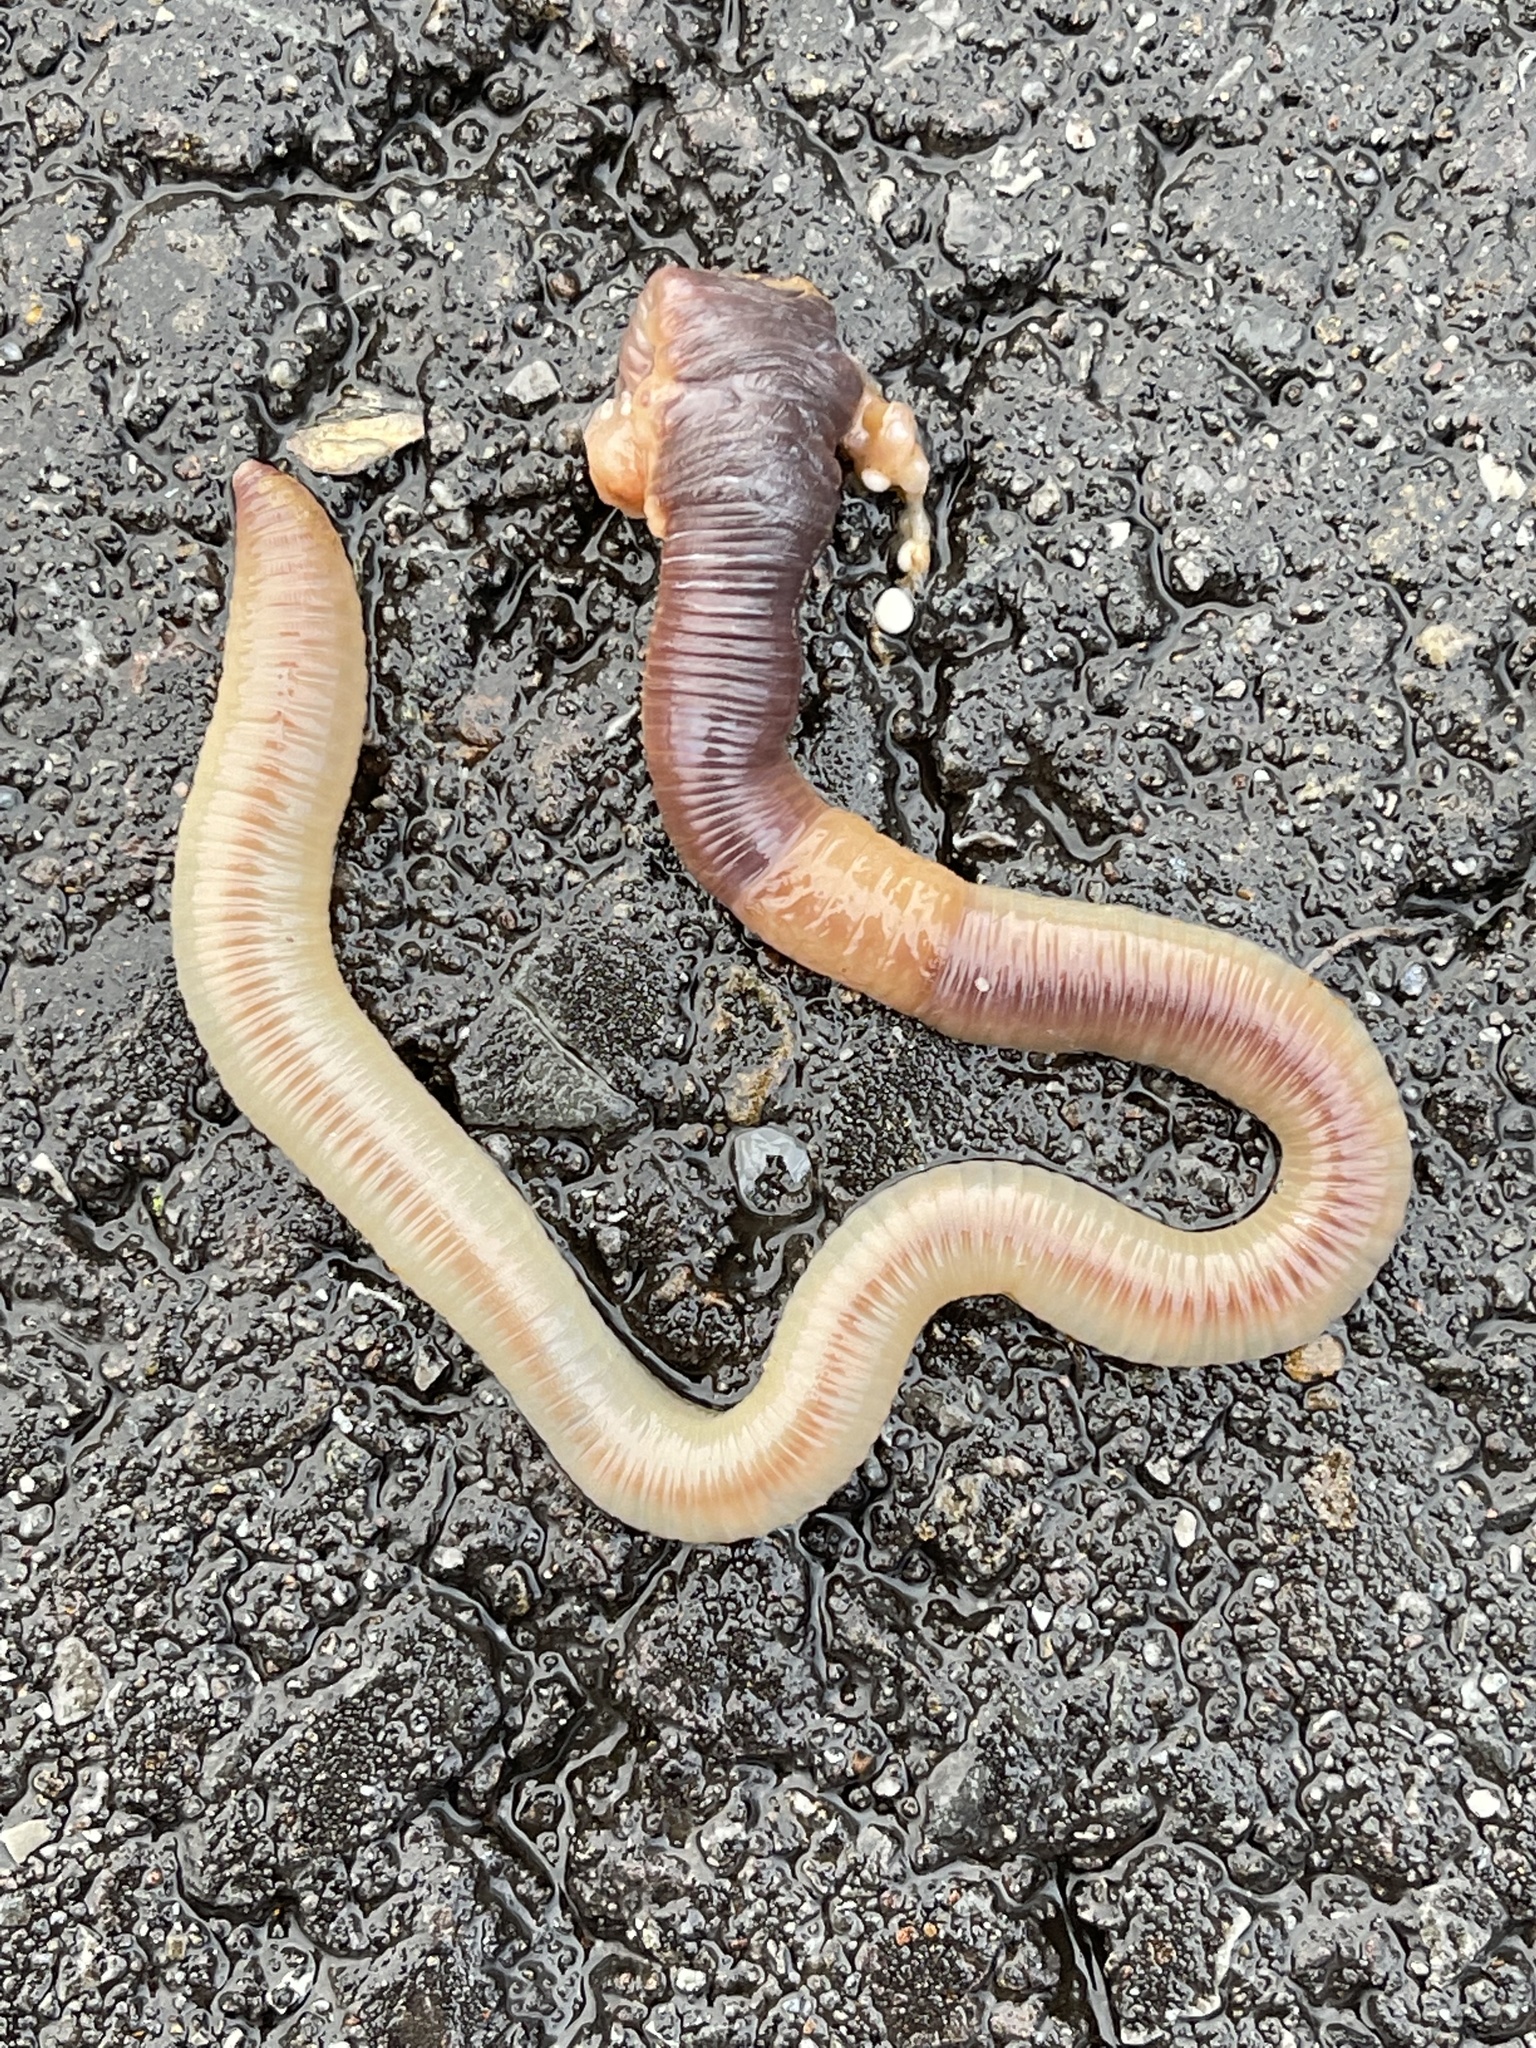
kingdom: Animalia
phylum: Annelida
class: Clitellata
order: Crassiclitellata
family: Lumbricidae
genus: Lumbricus
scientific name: Lumbricus terrestris
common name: Common earthworm
